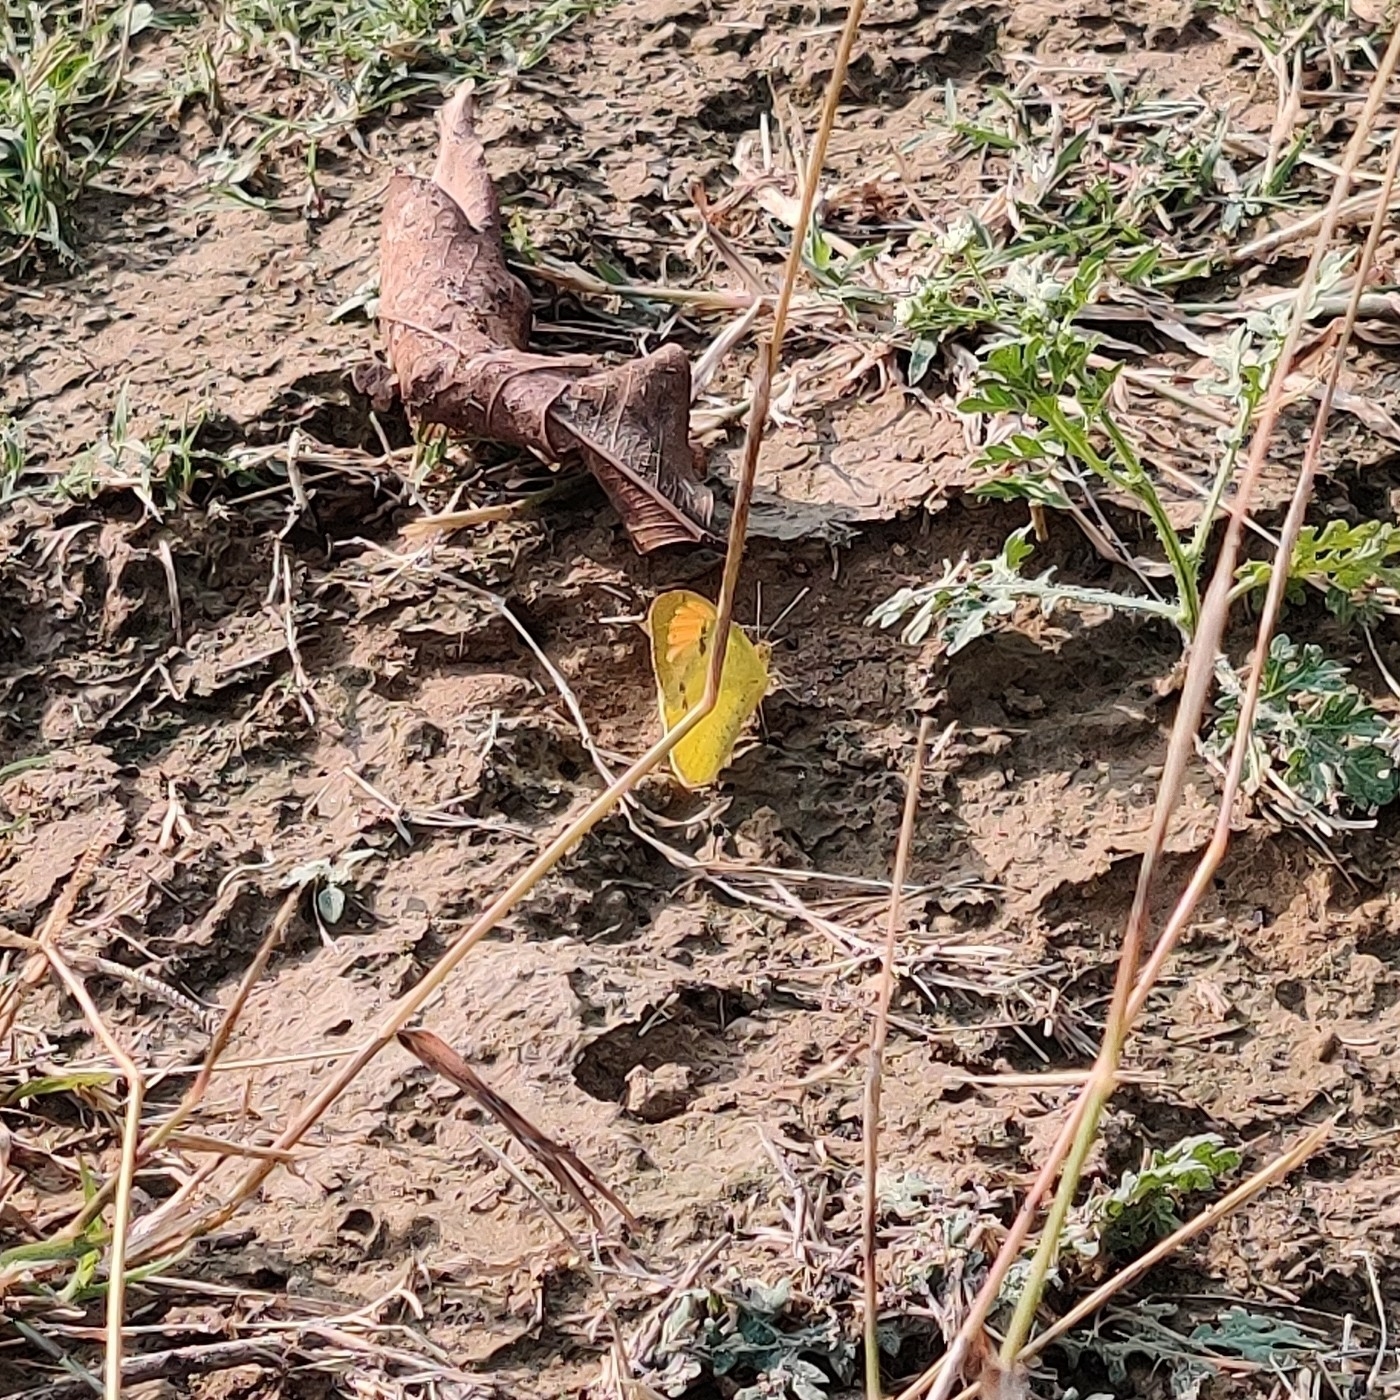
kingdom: Animalia
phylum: Arthropoda
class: Insecta
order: Lepidoptera
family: Pieridae
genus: Ixias
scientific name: Ixias pyrene
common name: Yellow orange tip
